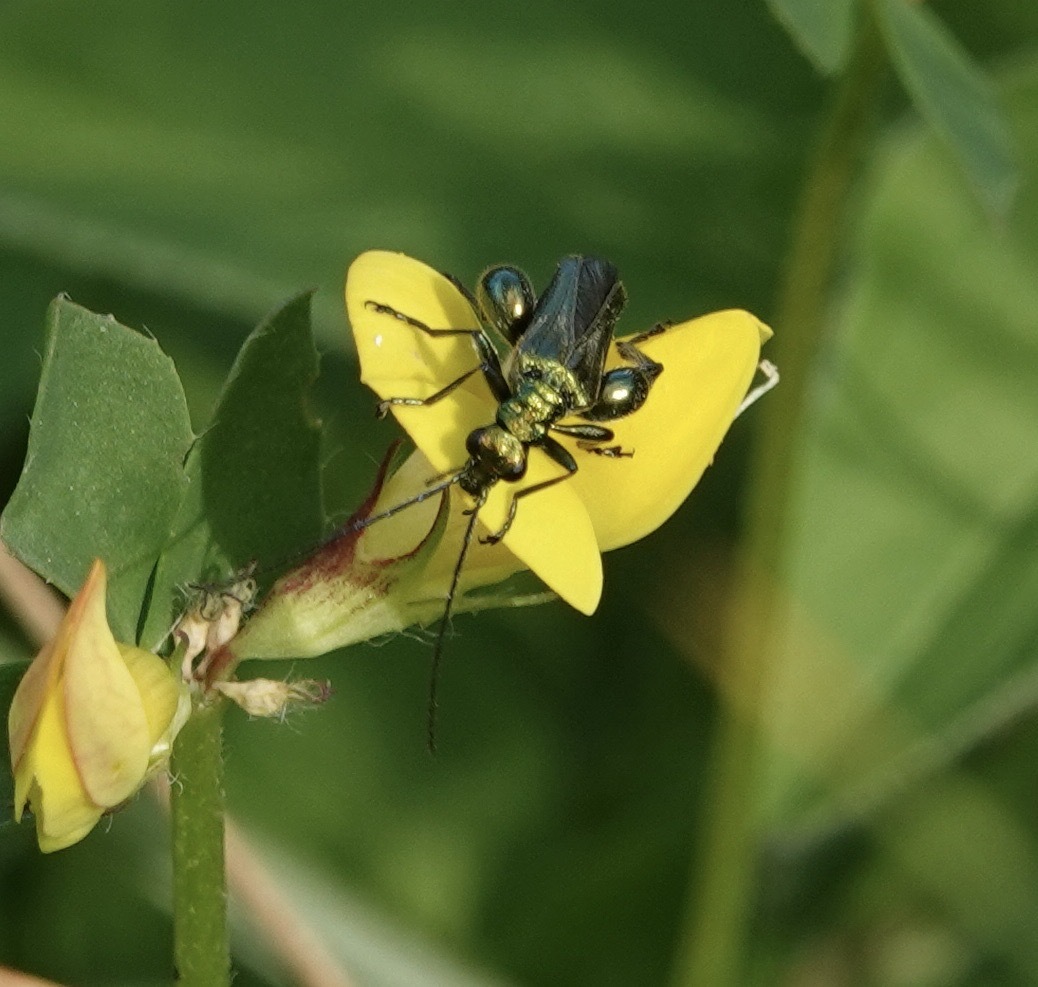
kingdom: Animalia
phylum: Arthropoda
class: Insecta
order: Coleoptera
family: Oedemeridae
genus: Oedemera
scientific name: Oedemera nobilis
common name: Swollen-thighed beetle
